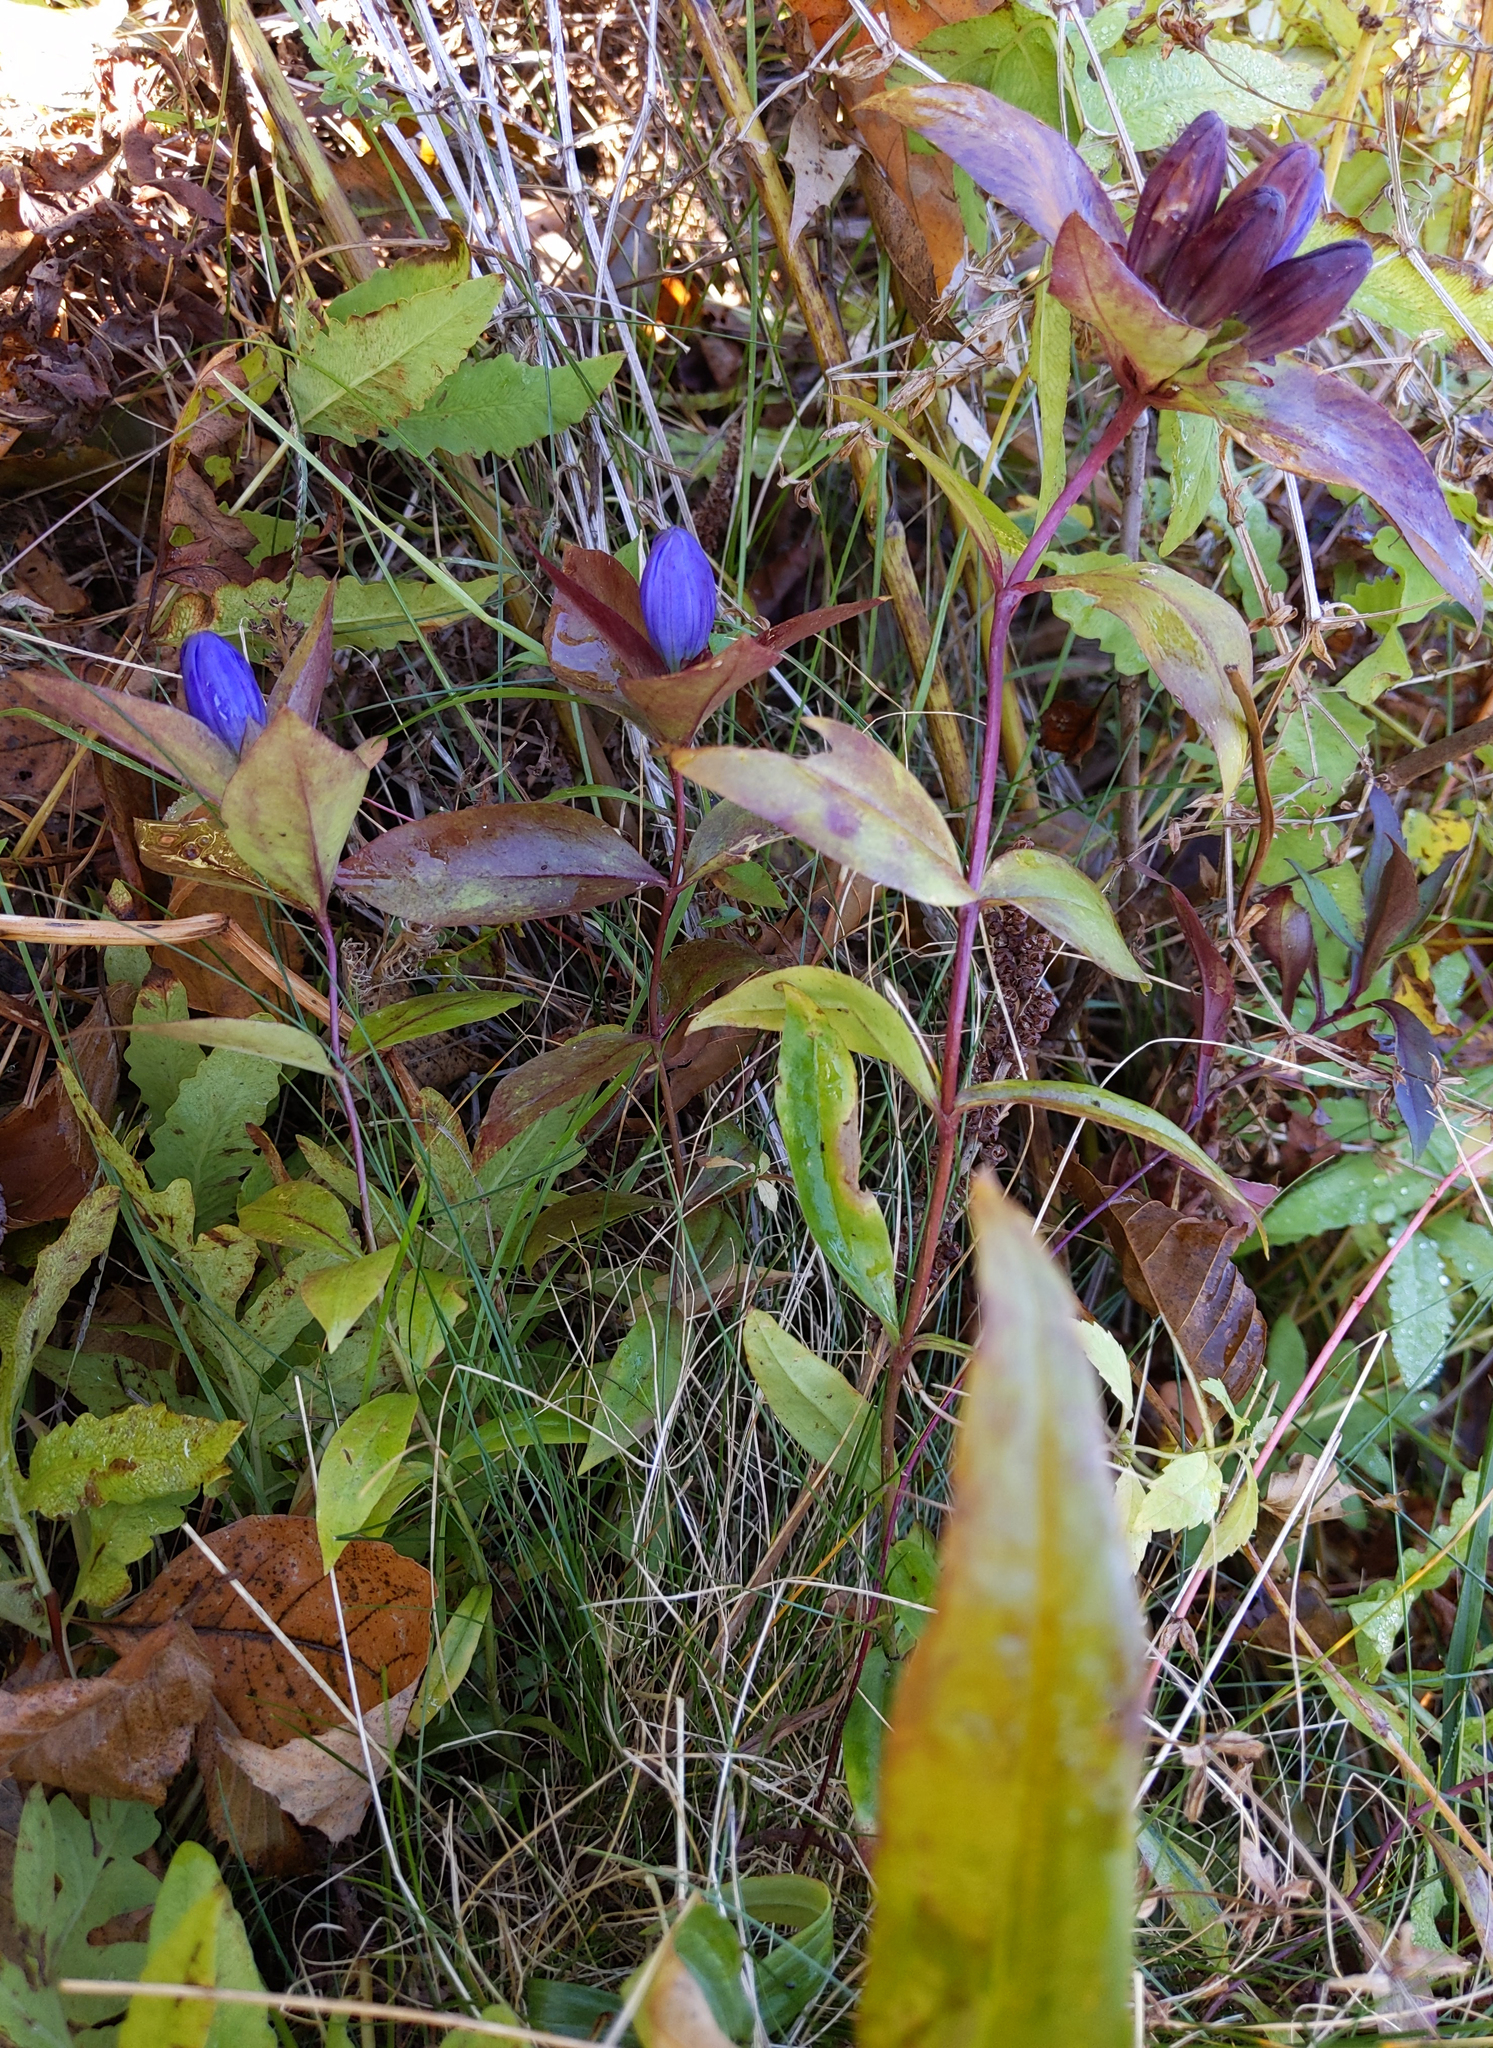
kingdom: Plantae
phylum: Tracheophyta
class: Magnoliopsida
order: Gentianales
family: Gentianaceae
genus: Gentiana
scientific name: Gentiana clausa
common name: Blind gentian
